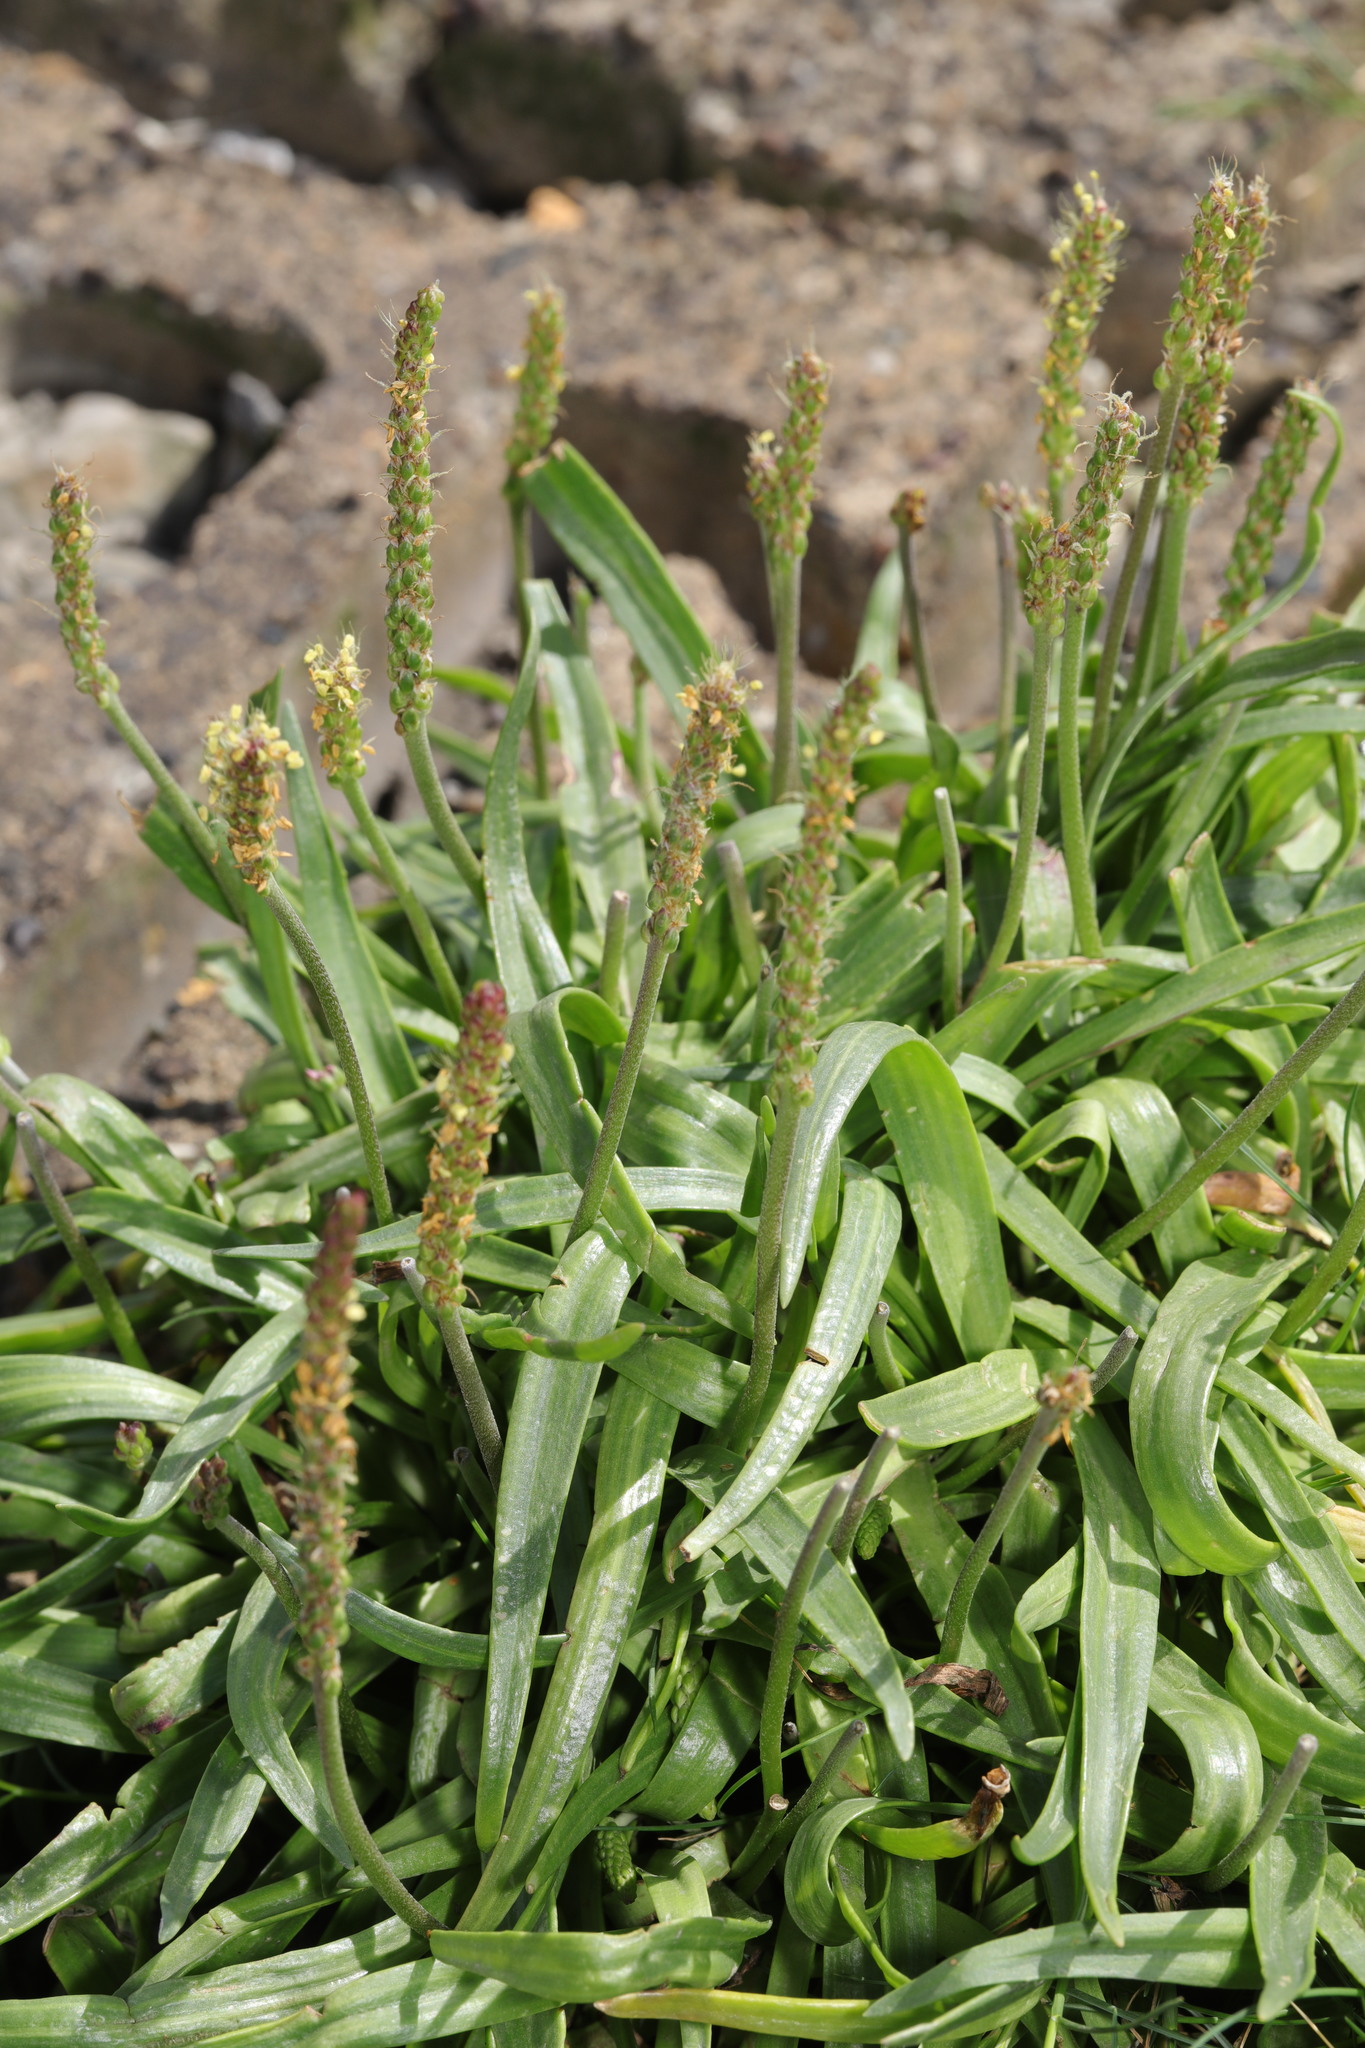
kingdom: Plantae
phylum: Tracheophyta
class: Magnoliopsida
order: Lamiales
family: Plantaginaceae
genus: Plantago
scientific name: Plantago maritima
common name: Sea plantain
